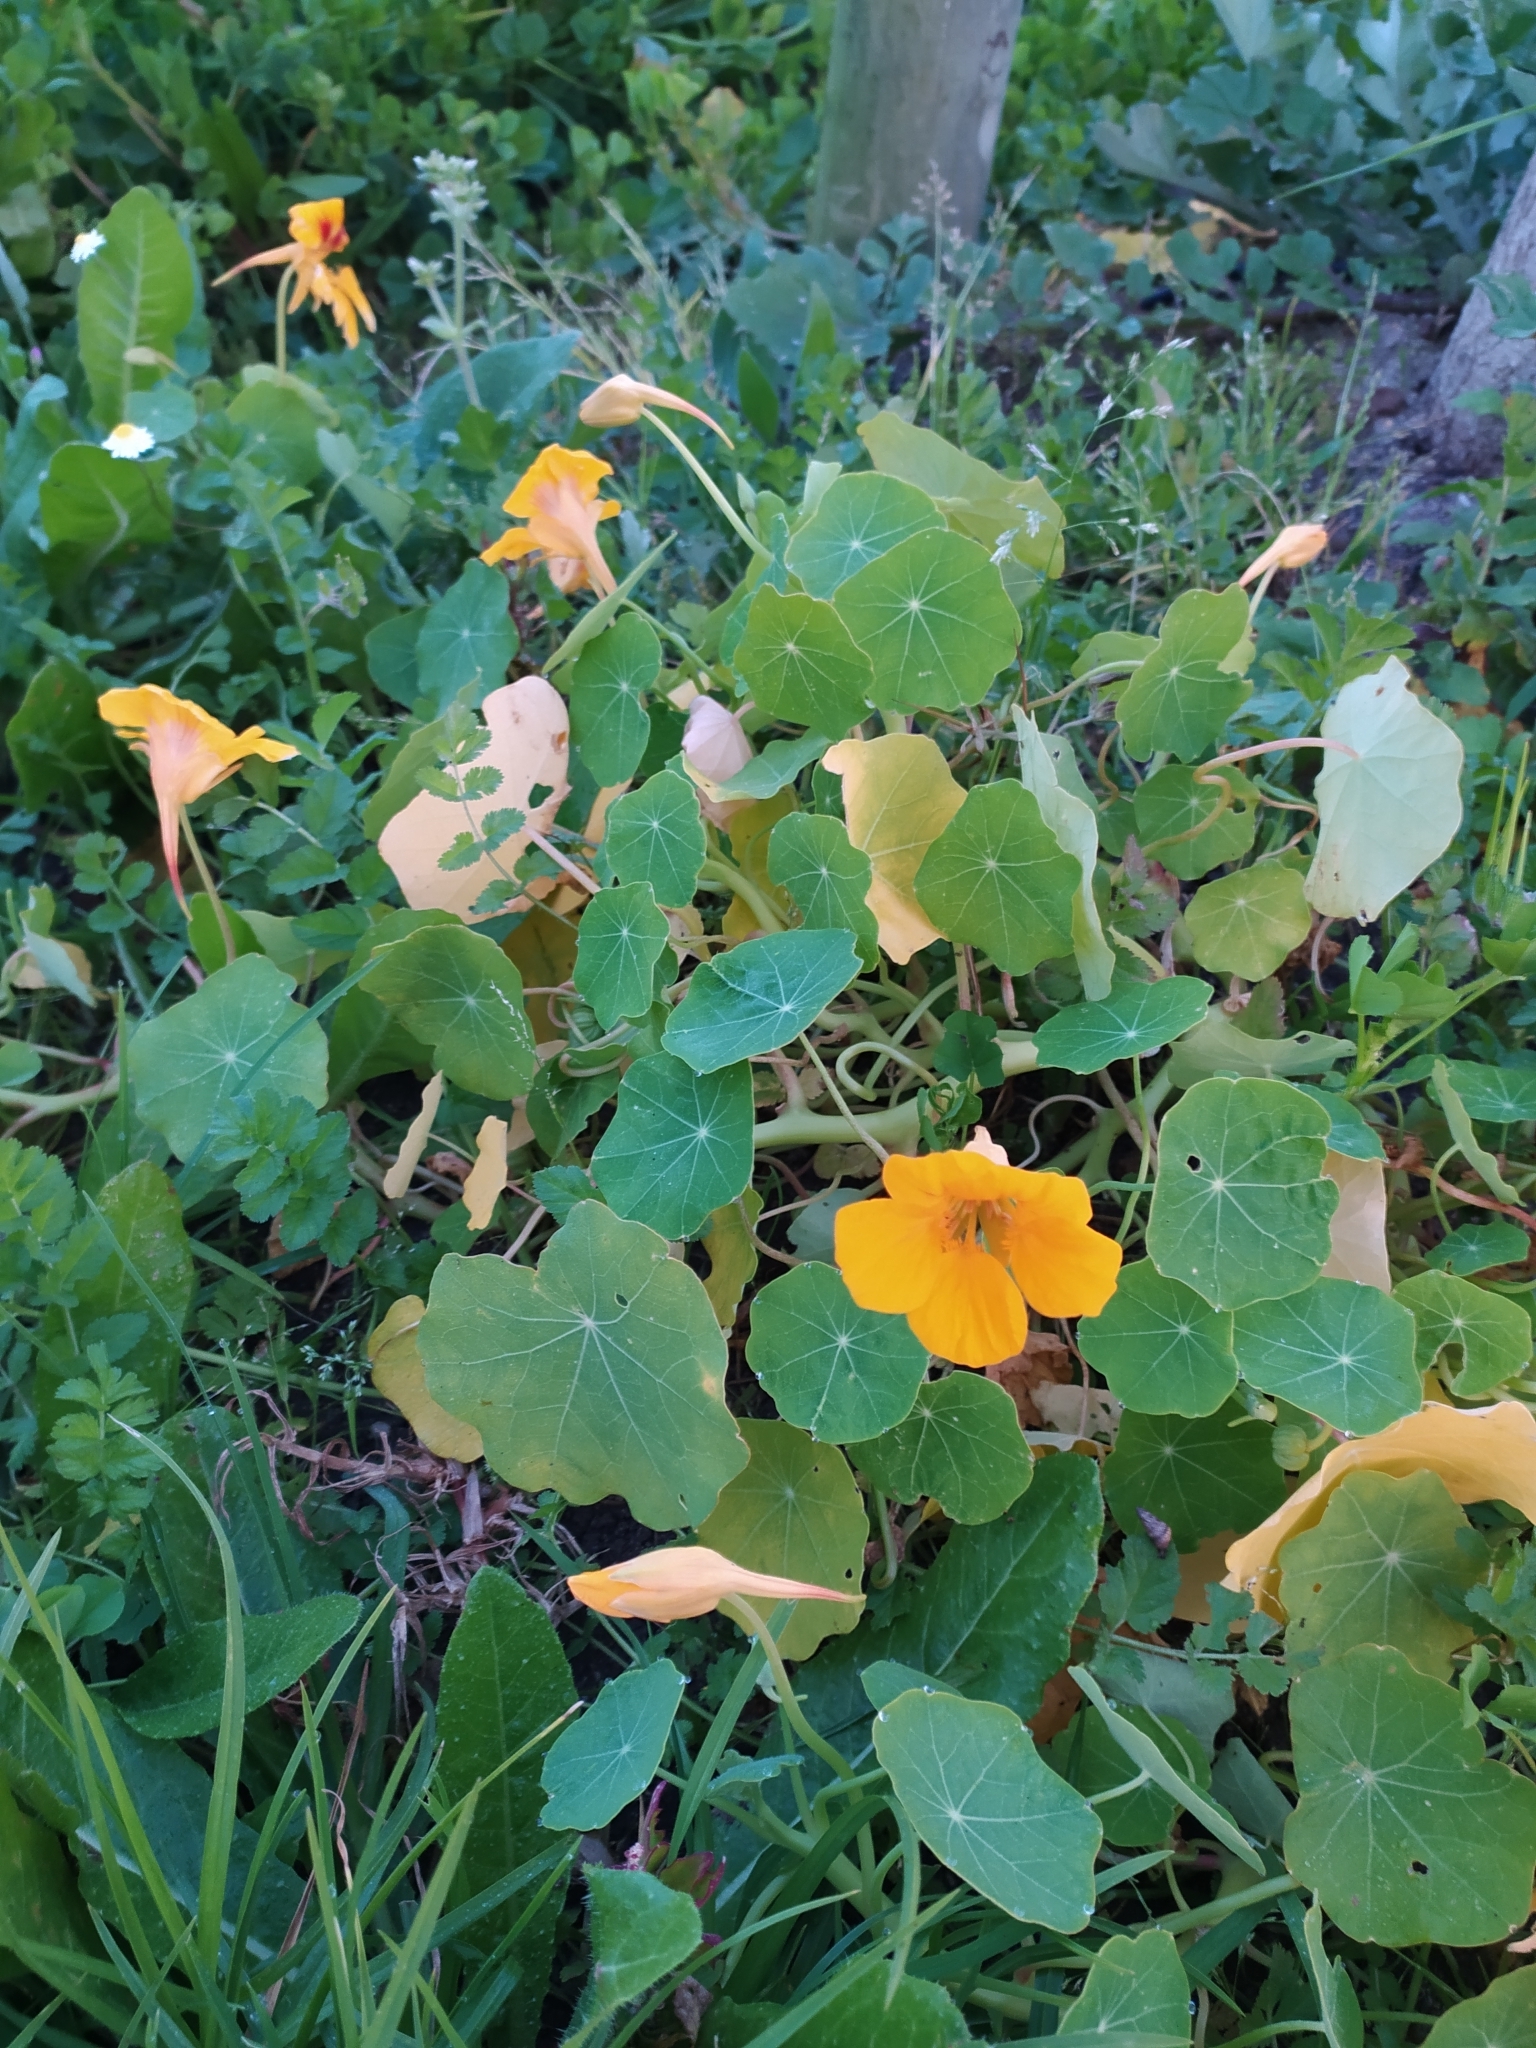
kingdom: Plantae
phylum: Tracheophyta
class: Magnoliopsida
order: Brassicales
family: Tropaeolaceae
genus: Tropaeolum
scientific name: Tropaeolum majus
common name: Nasturtium
